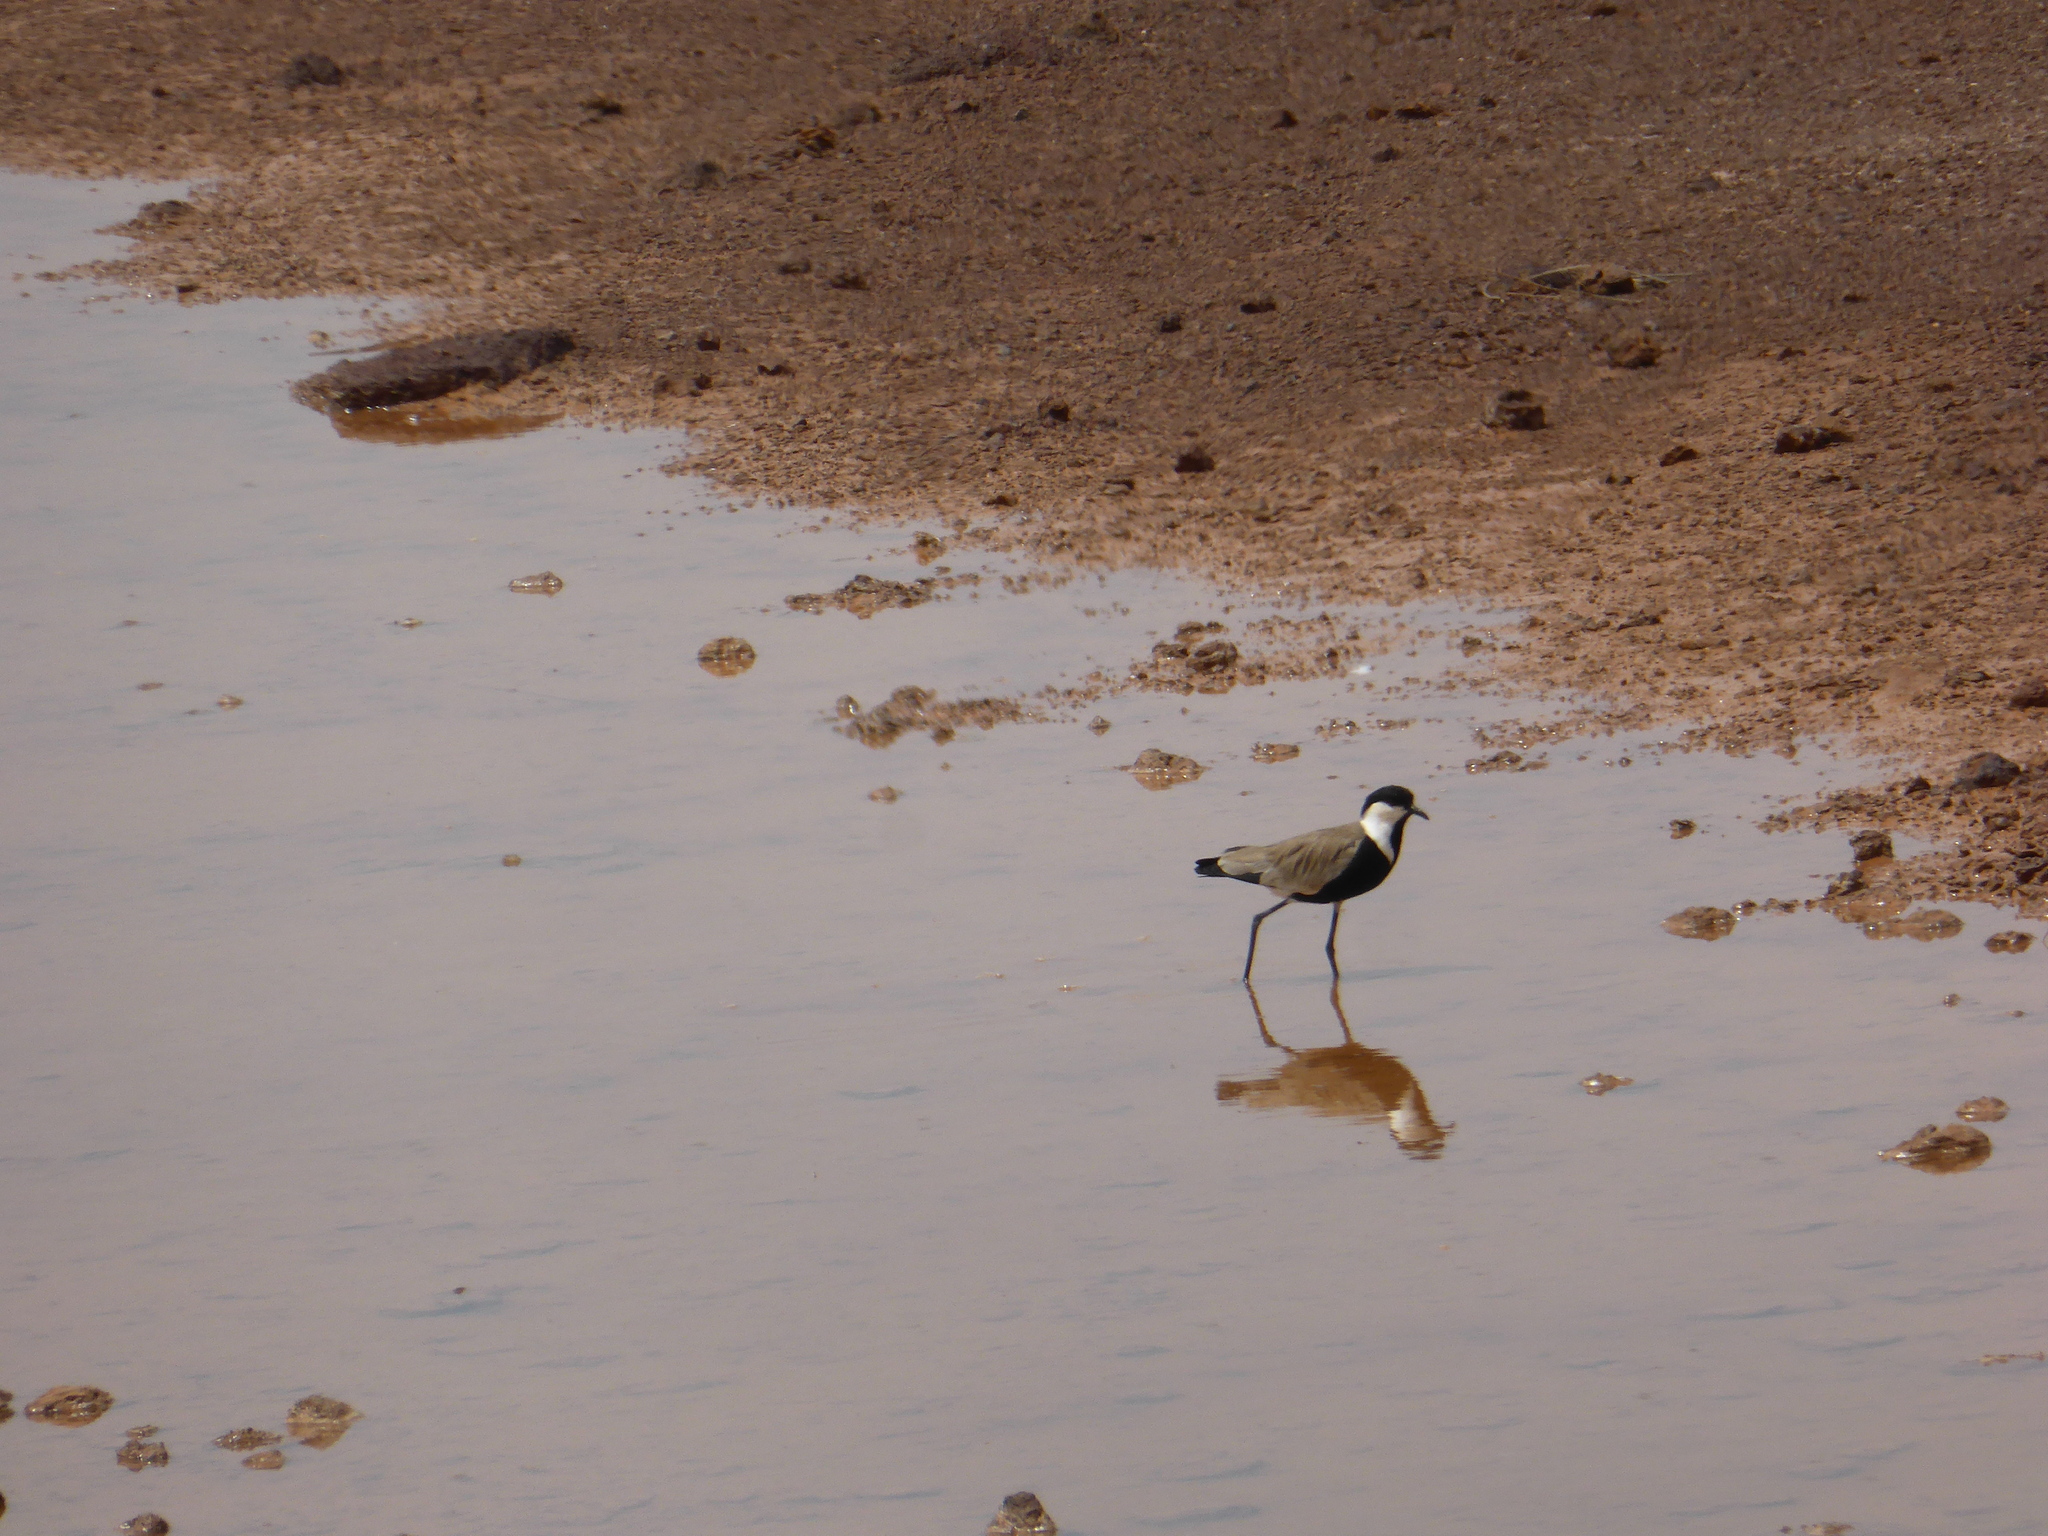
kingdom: Animalia
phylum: Chordata
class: Aves
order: Charadriiformes
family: Charadriidae
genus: Vanellus
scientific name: Vanellus spinosus
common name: Spur-winged lapwing
